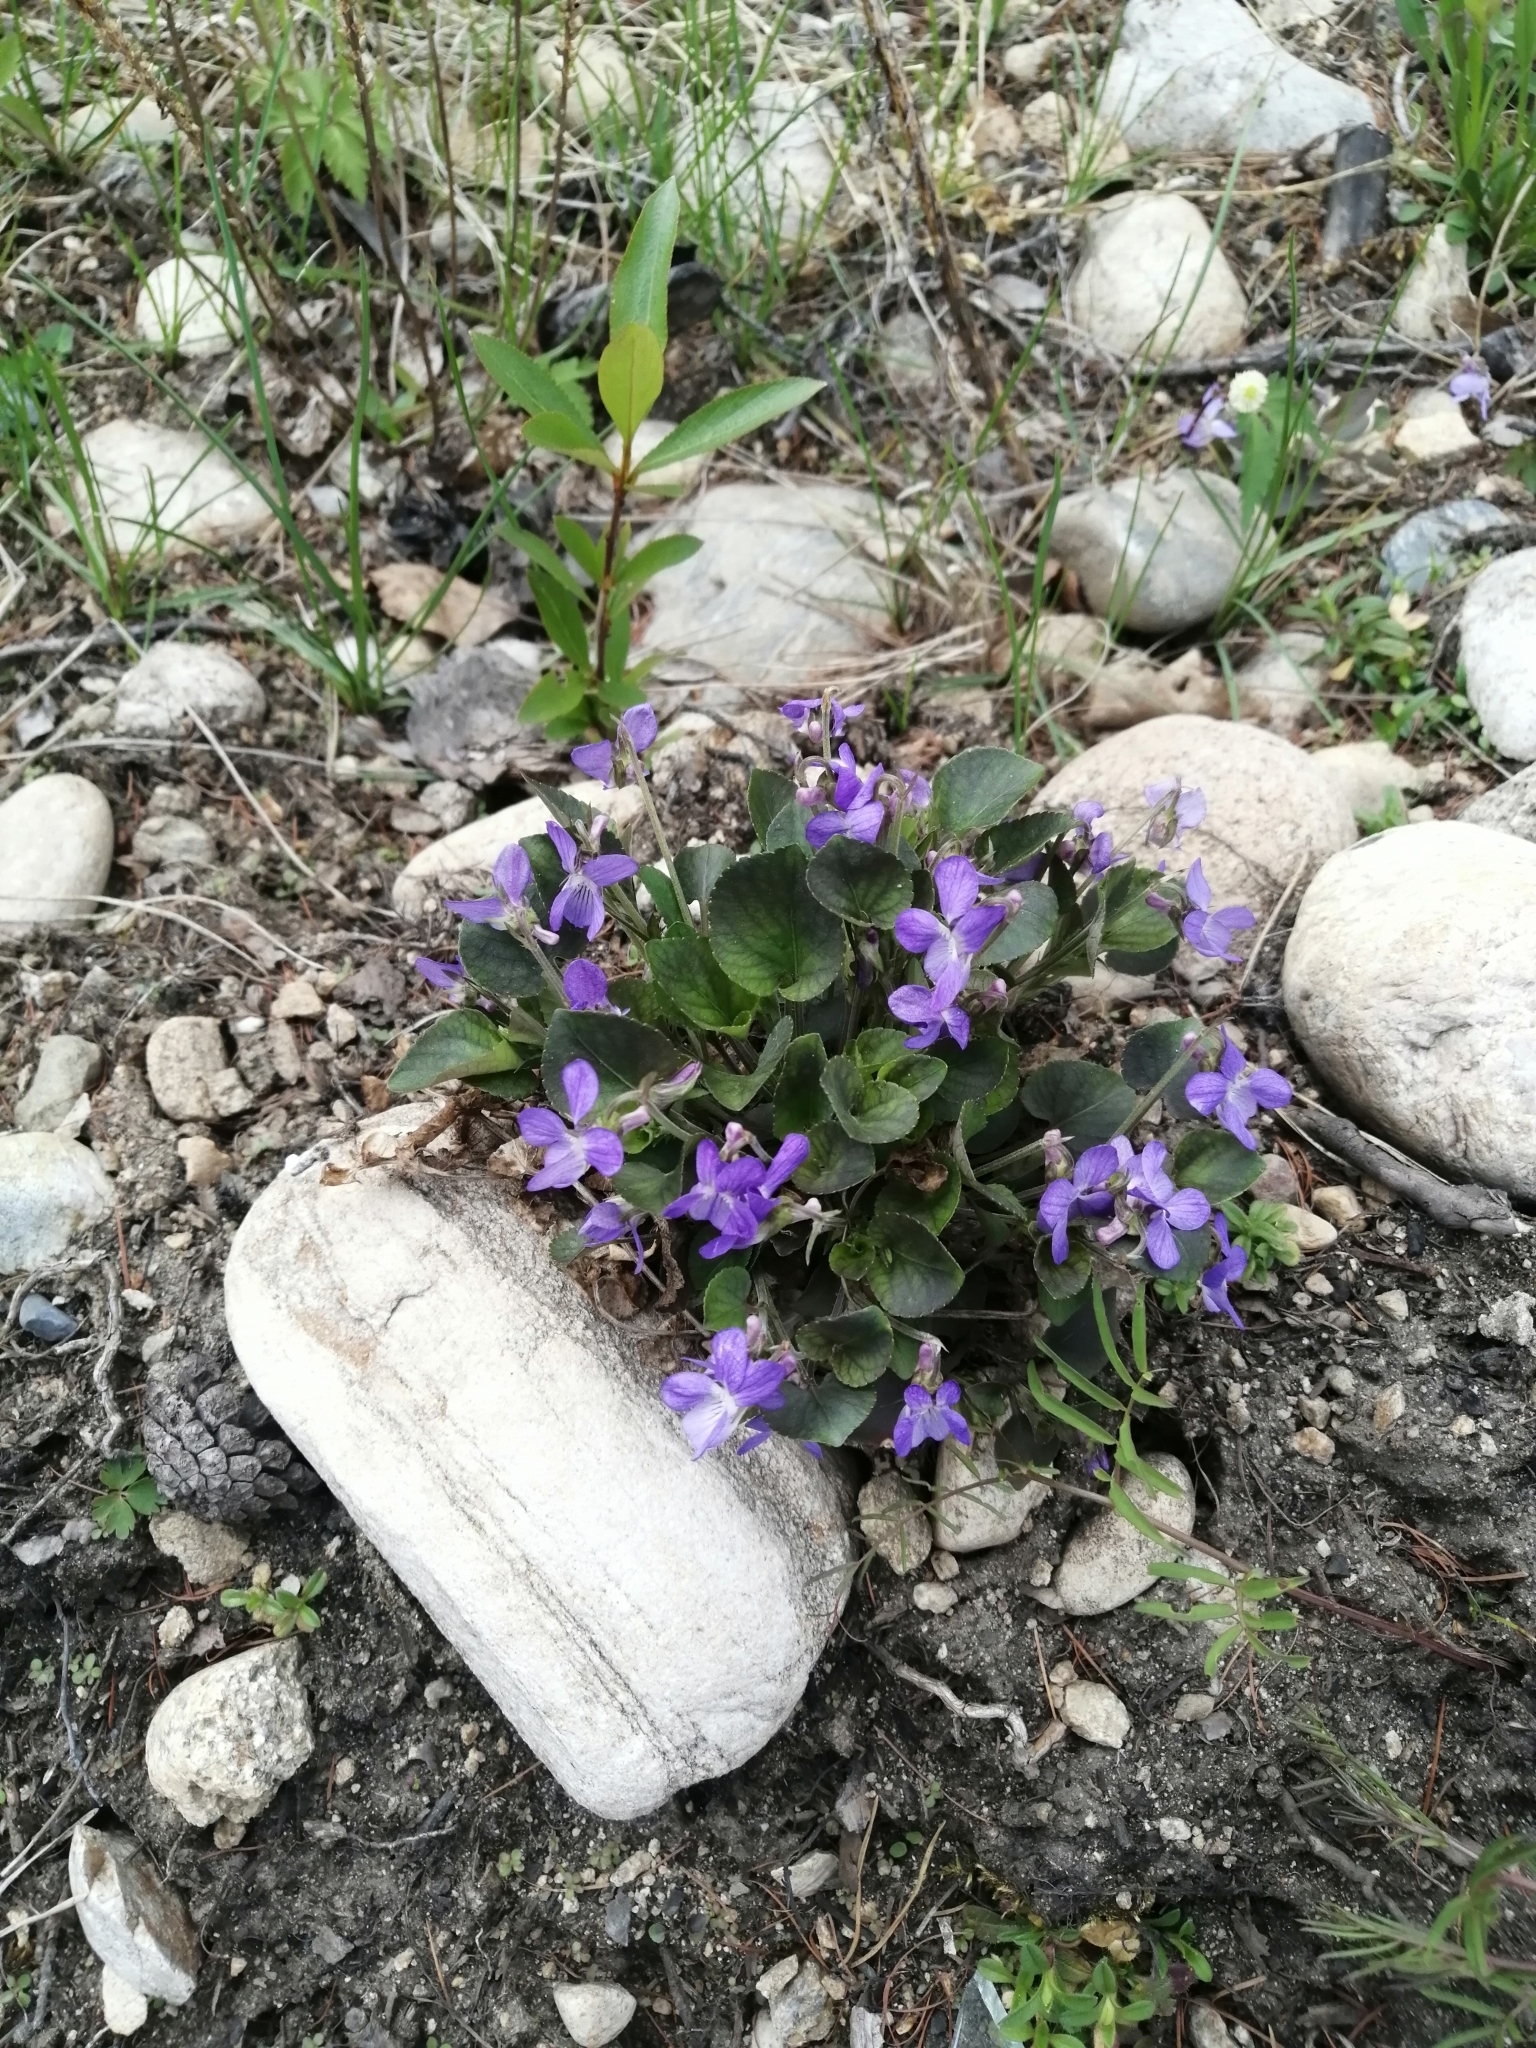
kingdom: Plantae
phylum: Tracheophyta
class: Magnoliopsida
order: Malpighiales
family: Violaceae
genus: Viola
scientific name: Viola rupestris
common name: Teesdale violet
